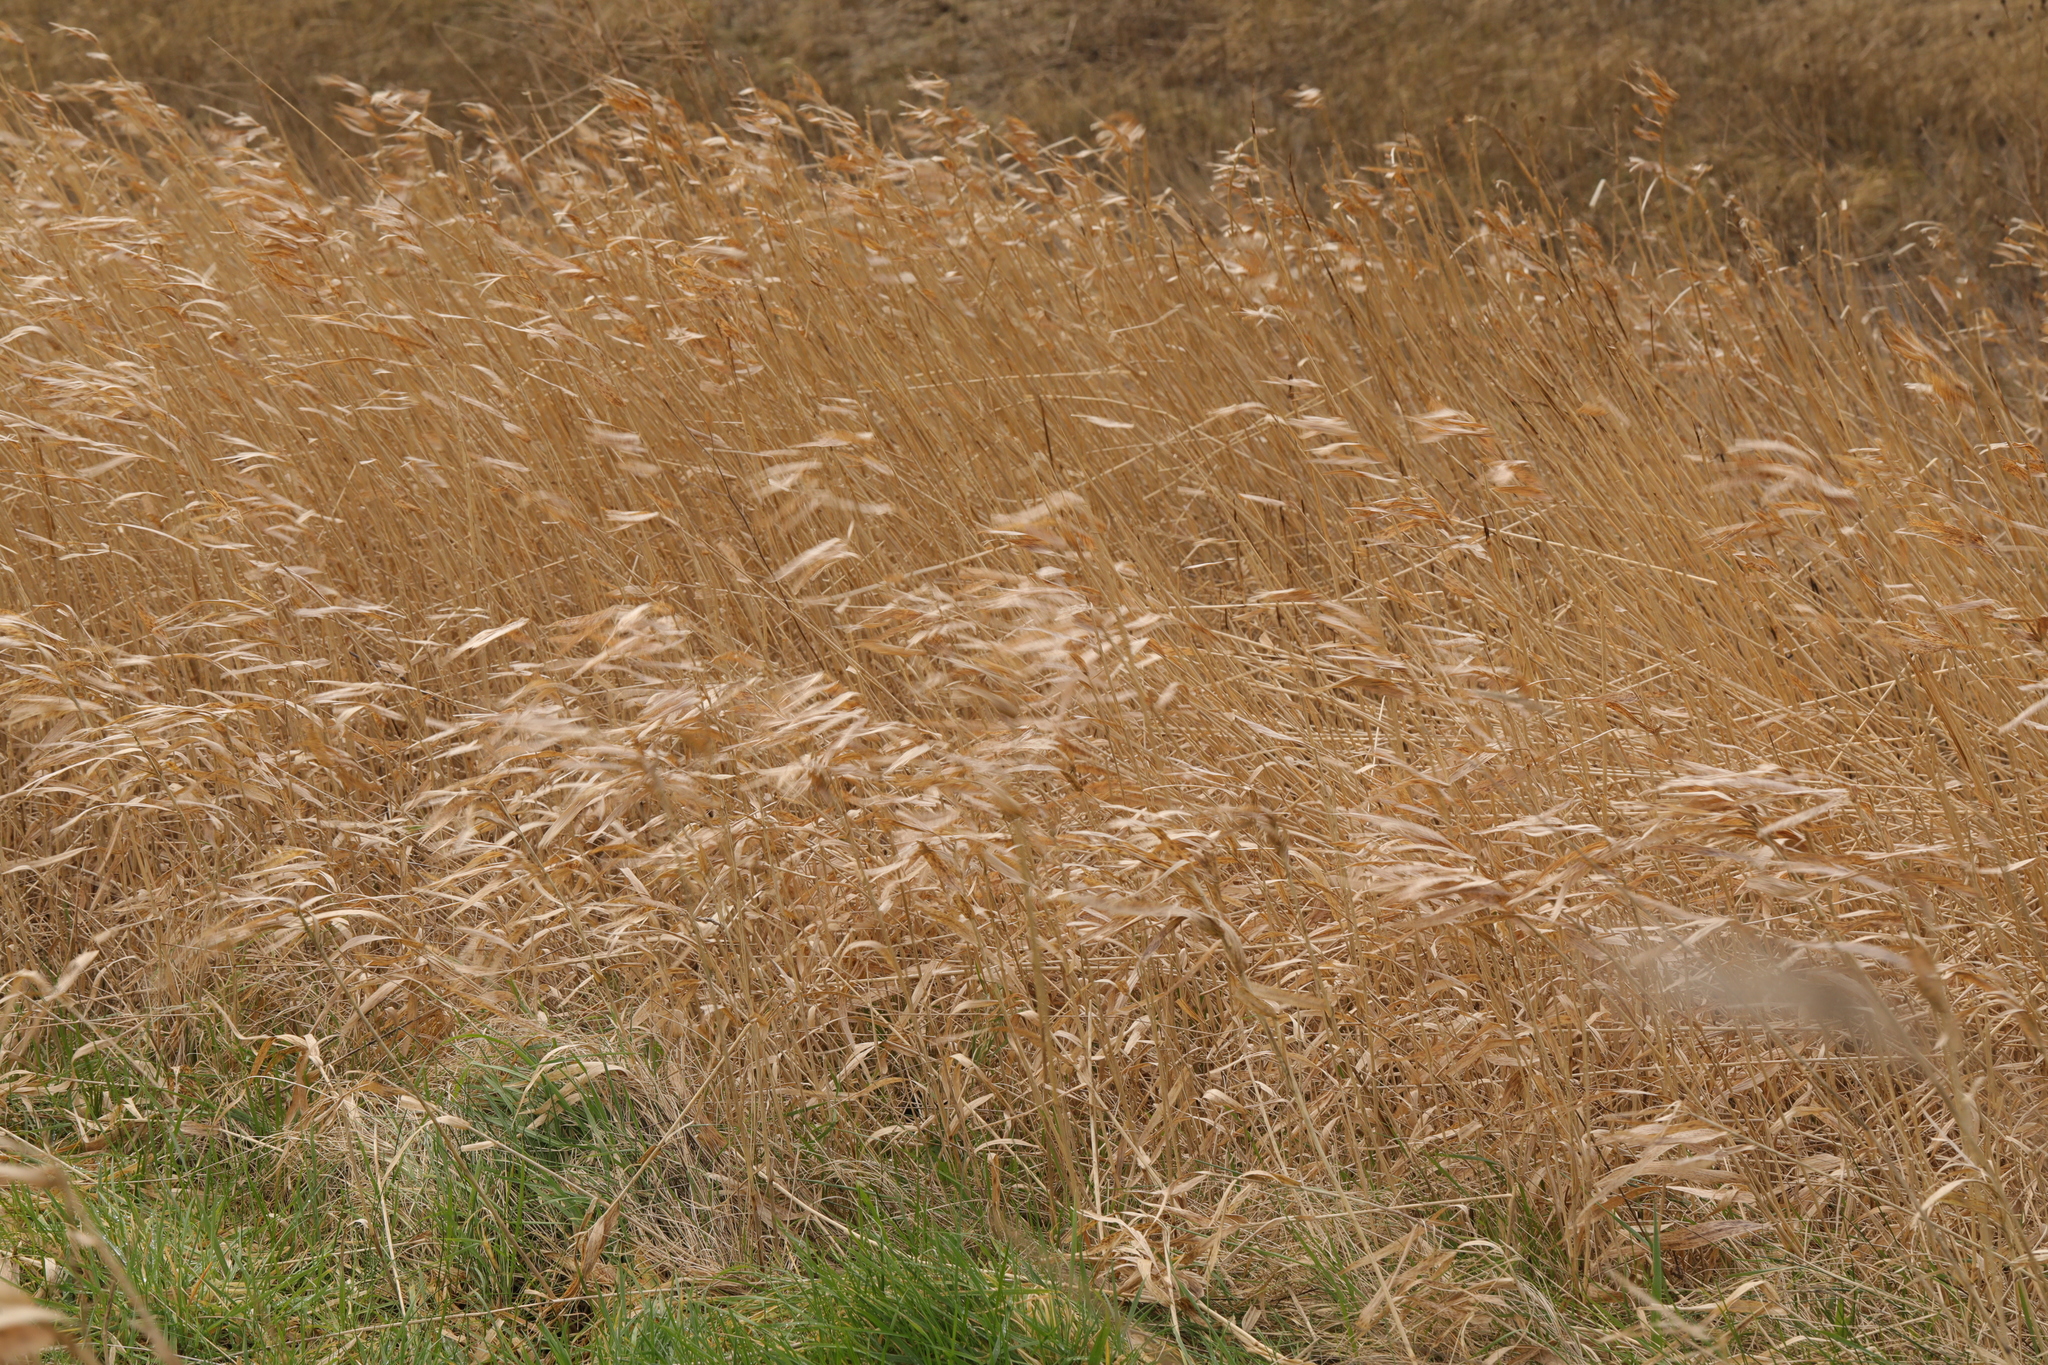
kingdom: Plantae
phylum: Tracheophyta
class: Liliopsida
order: Poales
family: Poaceae
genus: Phalaris
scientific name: Phalaris arundinacea
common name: Reed canary-grass
